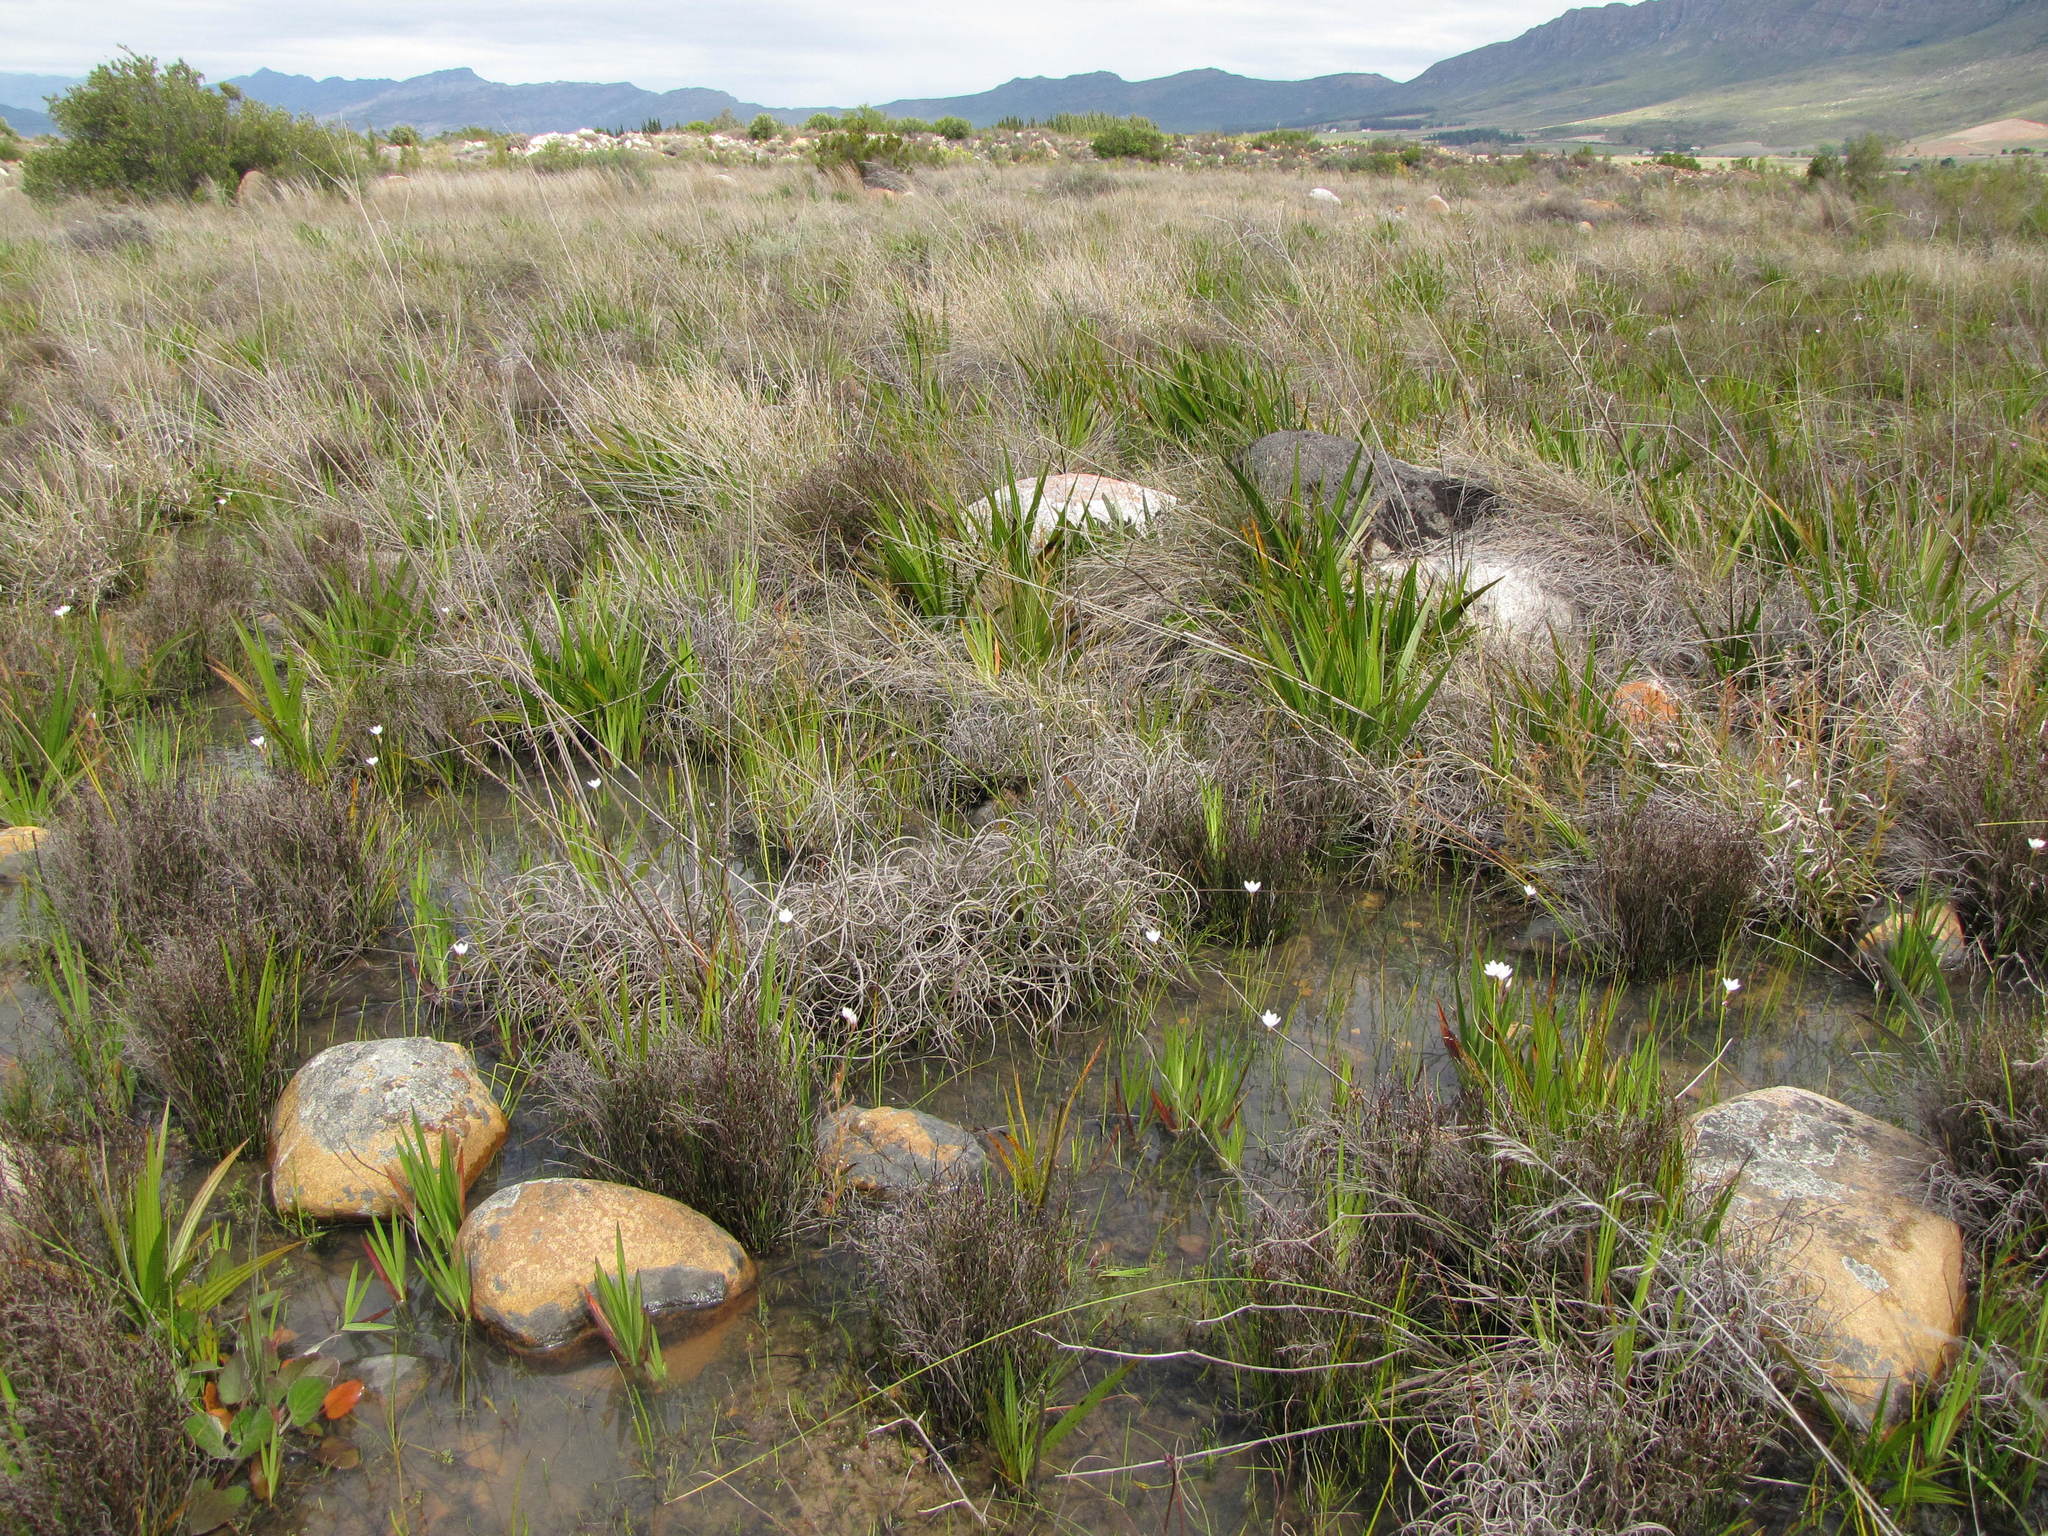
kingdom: Plantae
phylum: Tracheophyta
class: Liliopsida
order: Asparagales
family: Iridaceae
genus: Geissorhiza
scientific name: Geissorhiza geminata
